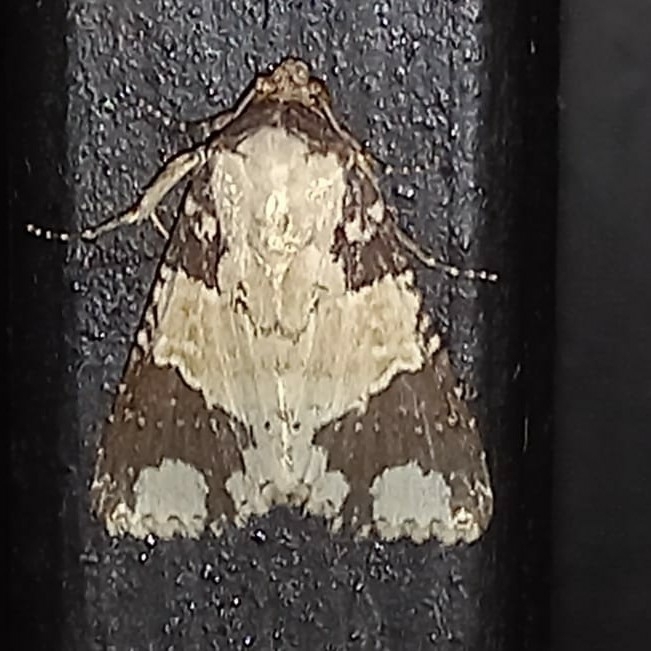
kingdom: Animalia
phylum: Arthropoda
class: Insecta
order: Lepidoptera
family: Noctuidae
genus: Condica
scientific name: Condica cupentia
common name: Splotched groundling
